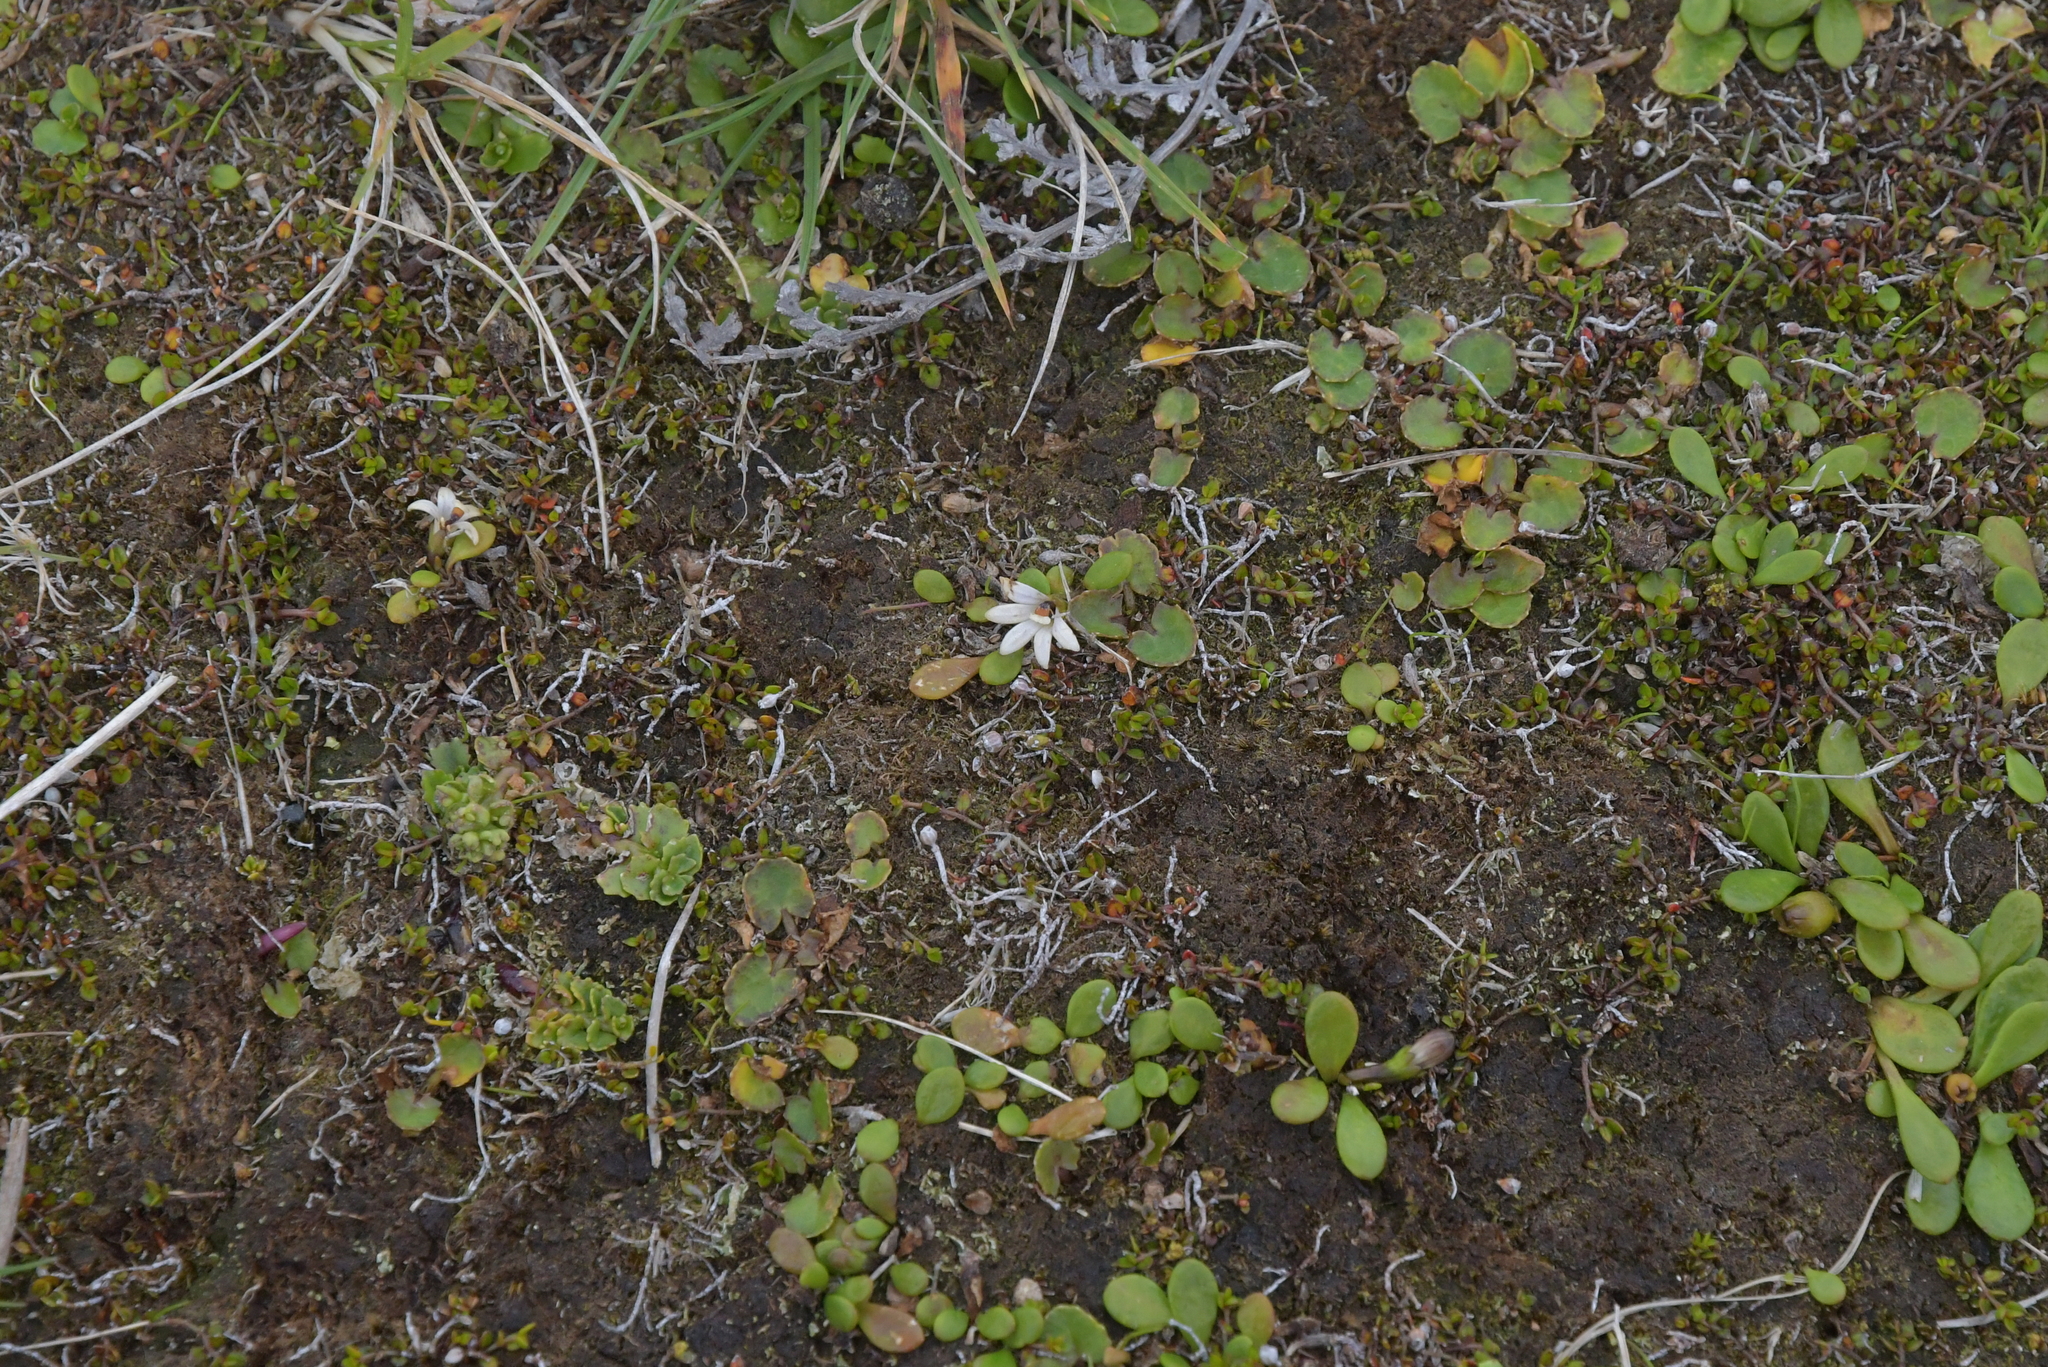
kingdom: Plantae
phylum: Tracheophyta
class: Magnoliopsida
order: Asterales
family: Goodeniaceae
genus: Goodenia
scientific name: Goodenia radicans
